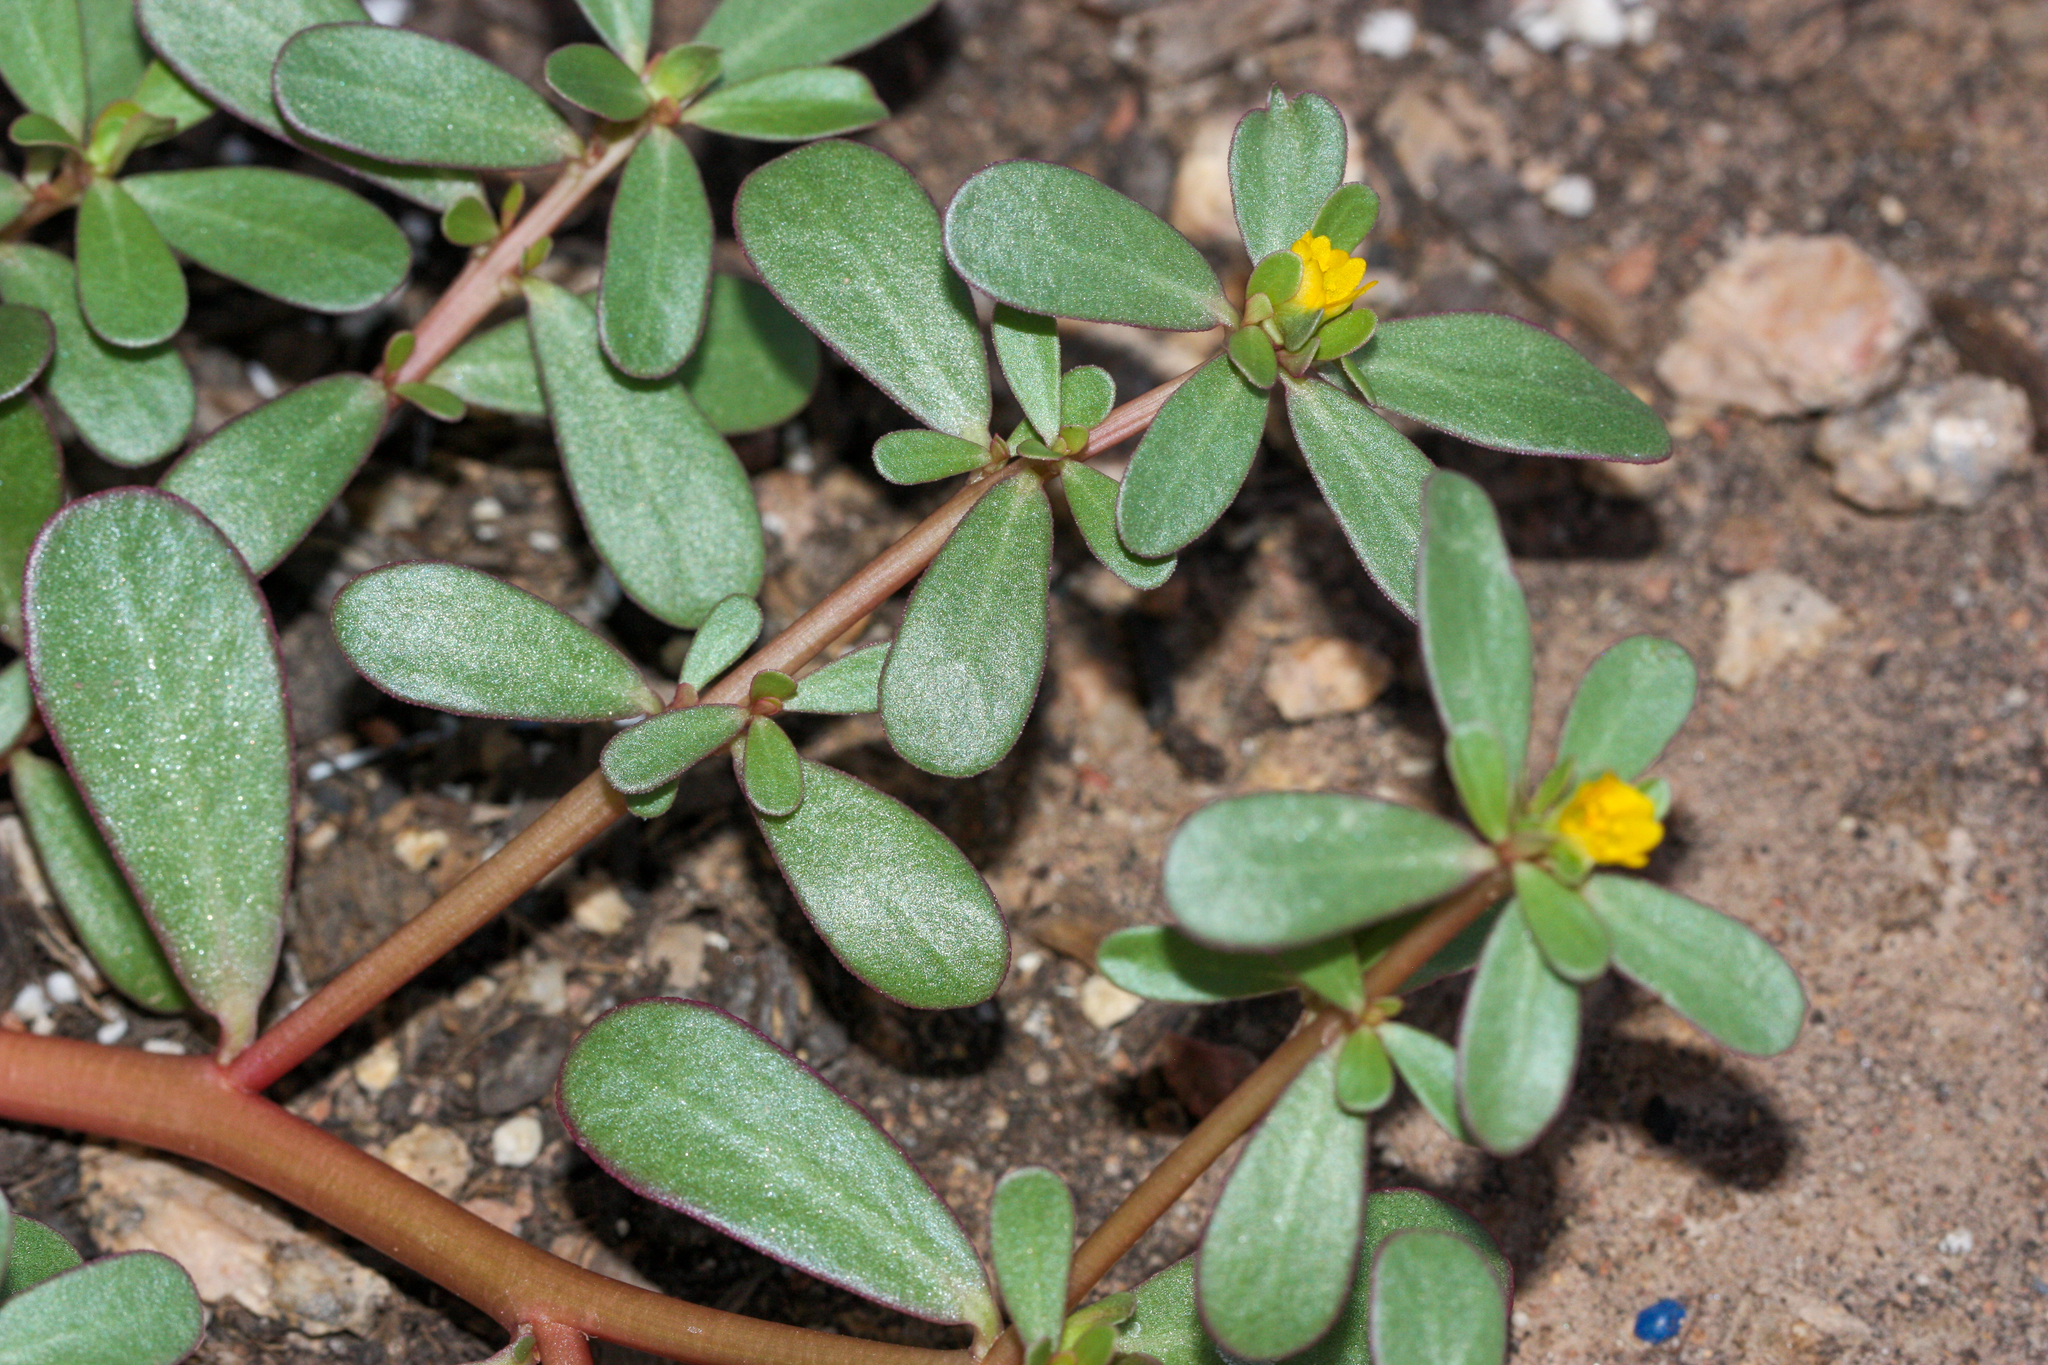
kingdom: Plantae
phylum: Tracheophyta
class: Magnoliopsida
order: Caryophyllales
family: Portulacaceae
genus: Portulaca
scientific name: Portulaca oleracea
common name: Common purslane
